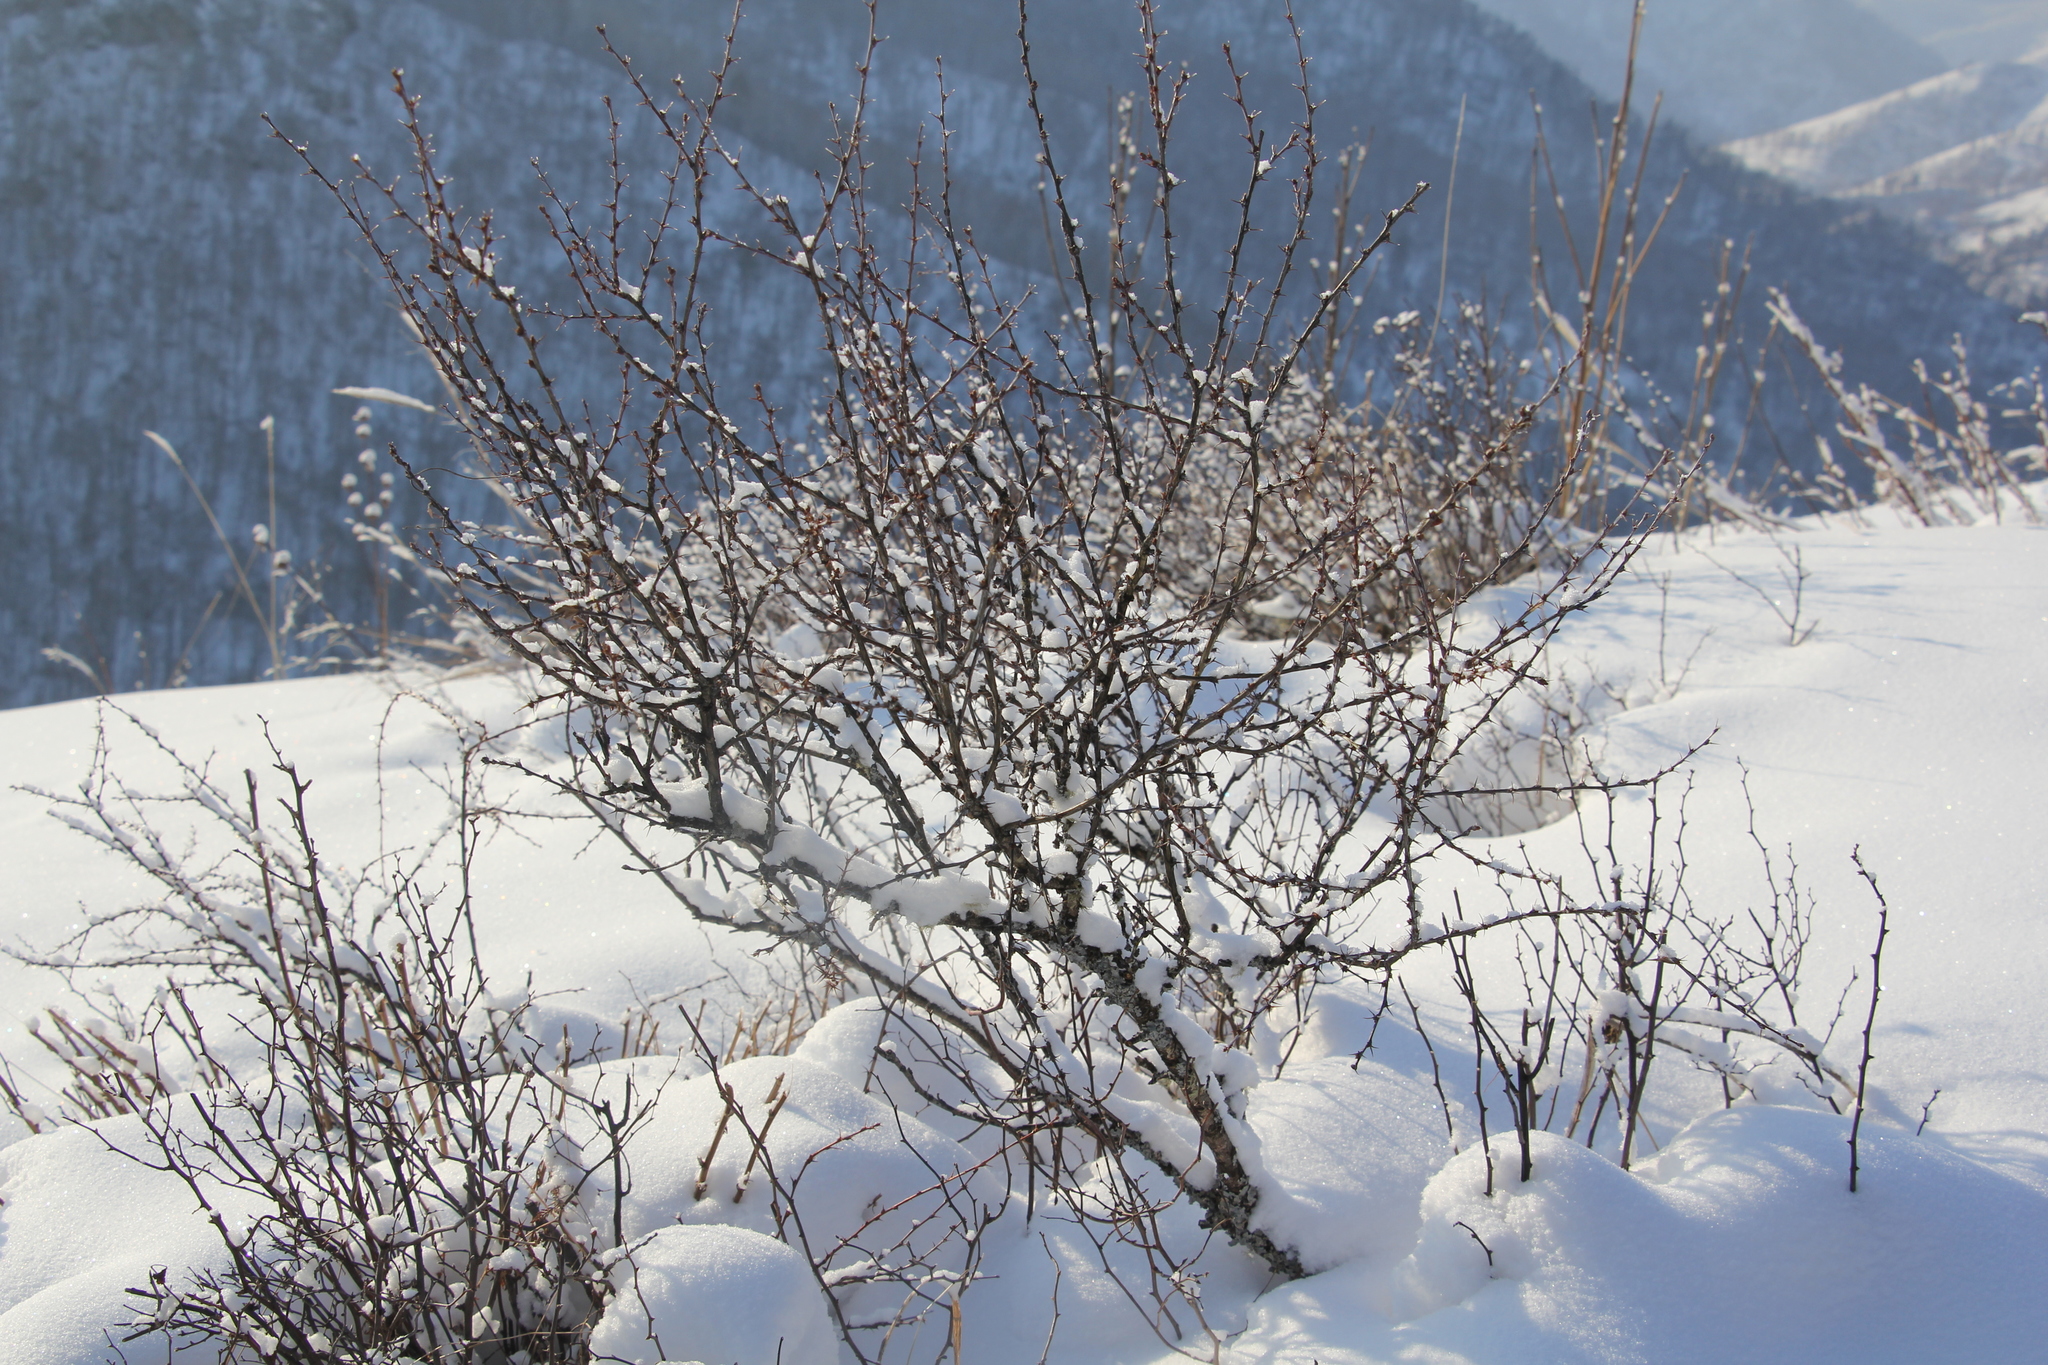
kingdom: Plantae
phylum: Tracheophyta
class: Magnoliopsida
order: Fabales
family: Fabaceae
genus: Caragana
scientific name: Caragana arborescens
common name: Siberian peashrub
